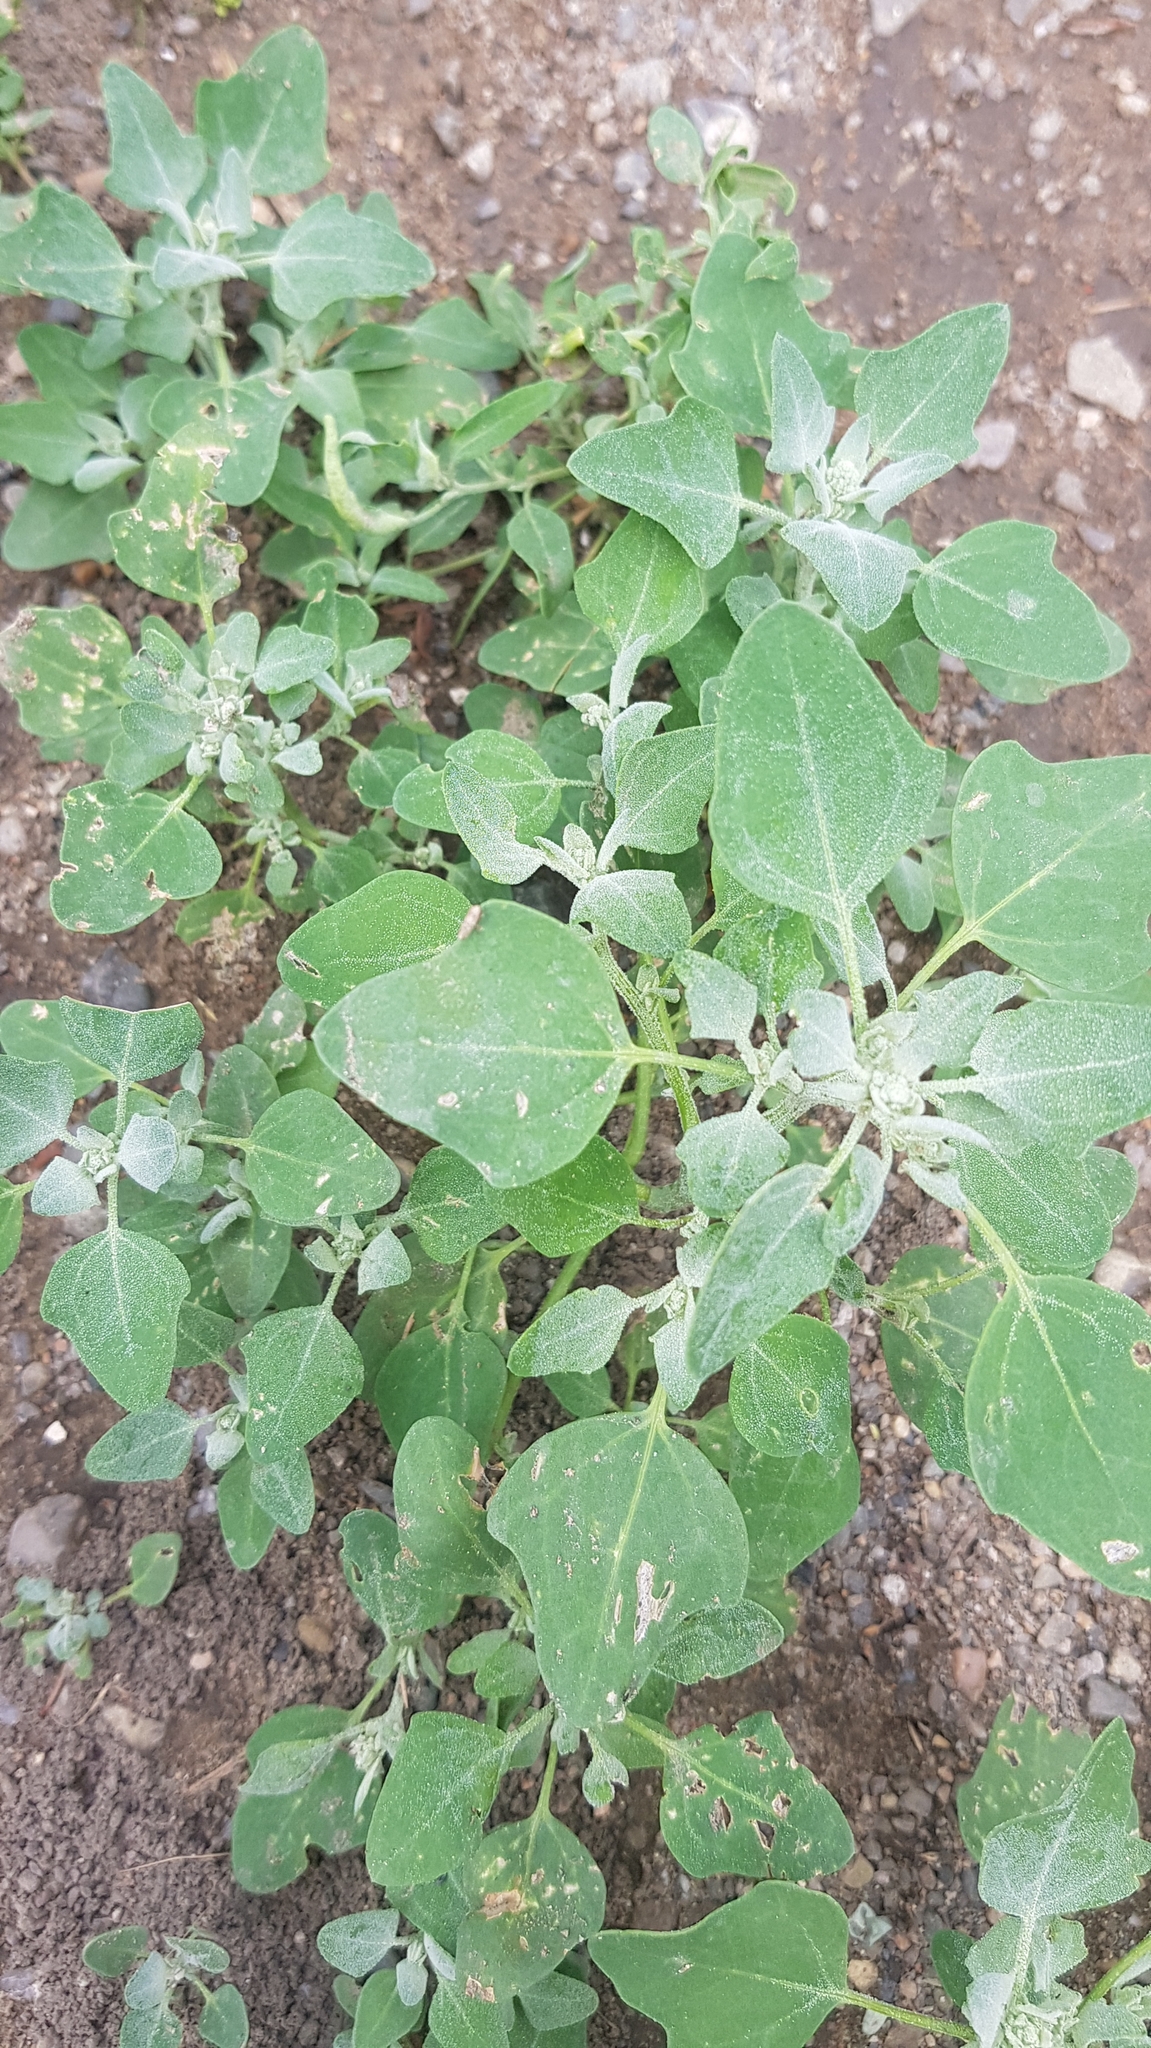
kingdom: Plantae
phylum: Tracheophyta
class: Magnoliopsida
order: Caryophyllales
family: Amaranthaceae
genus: Chenopodium
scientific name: Chenopodium karoi
